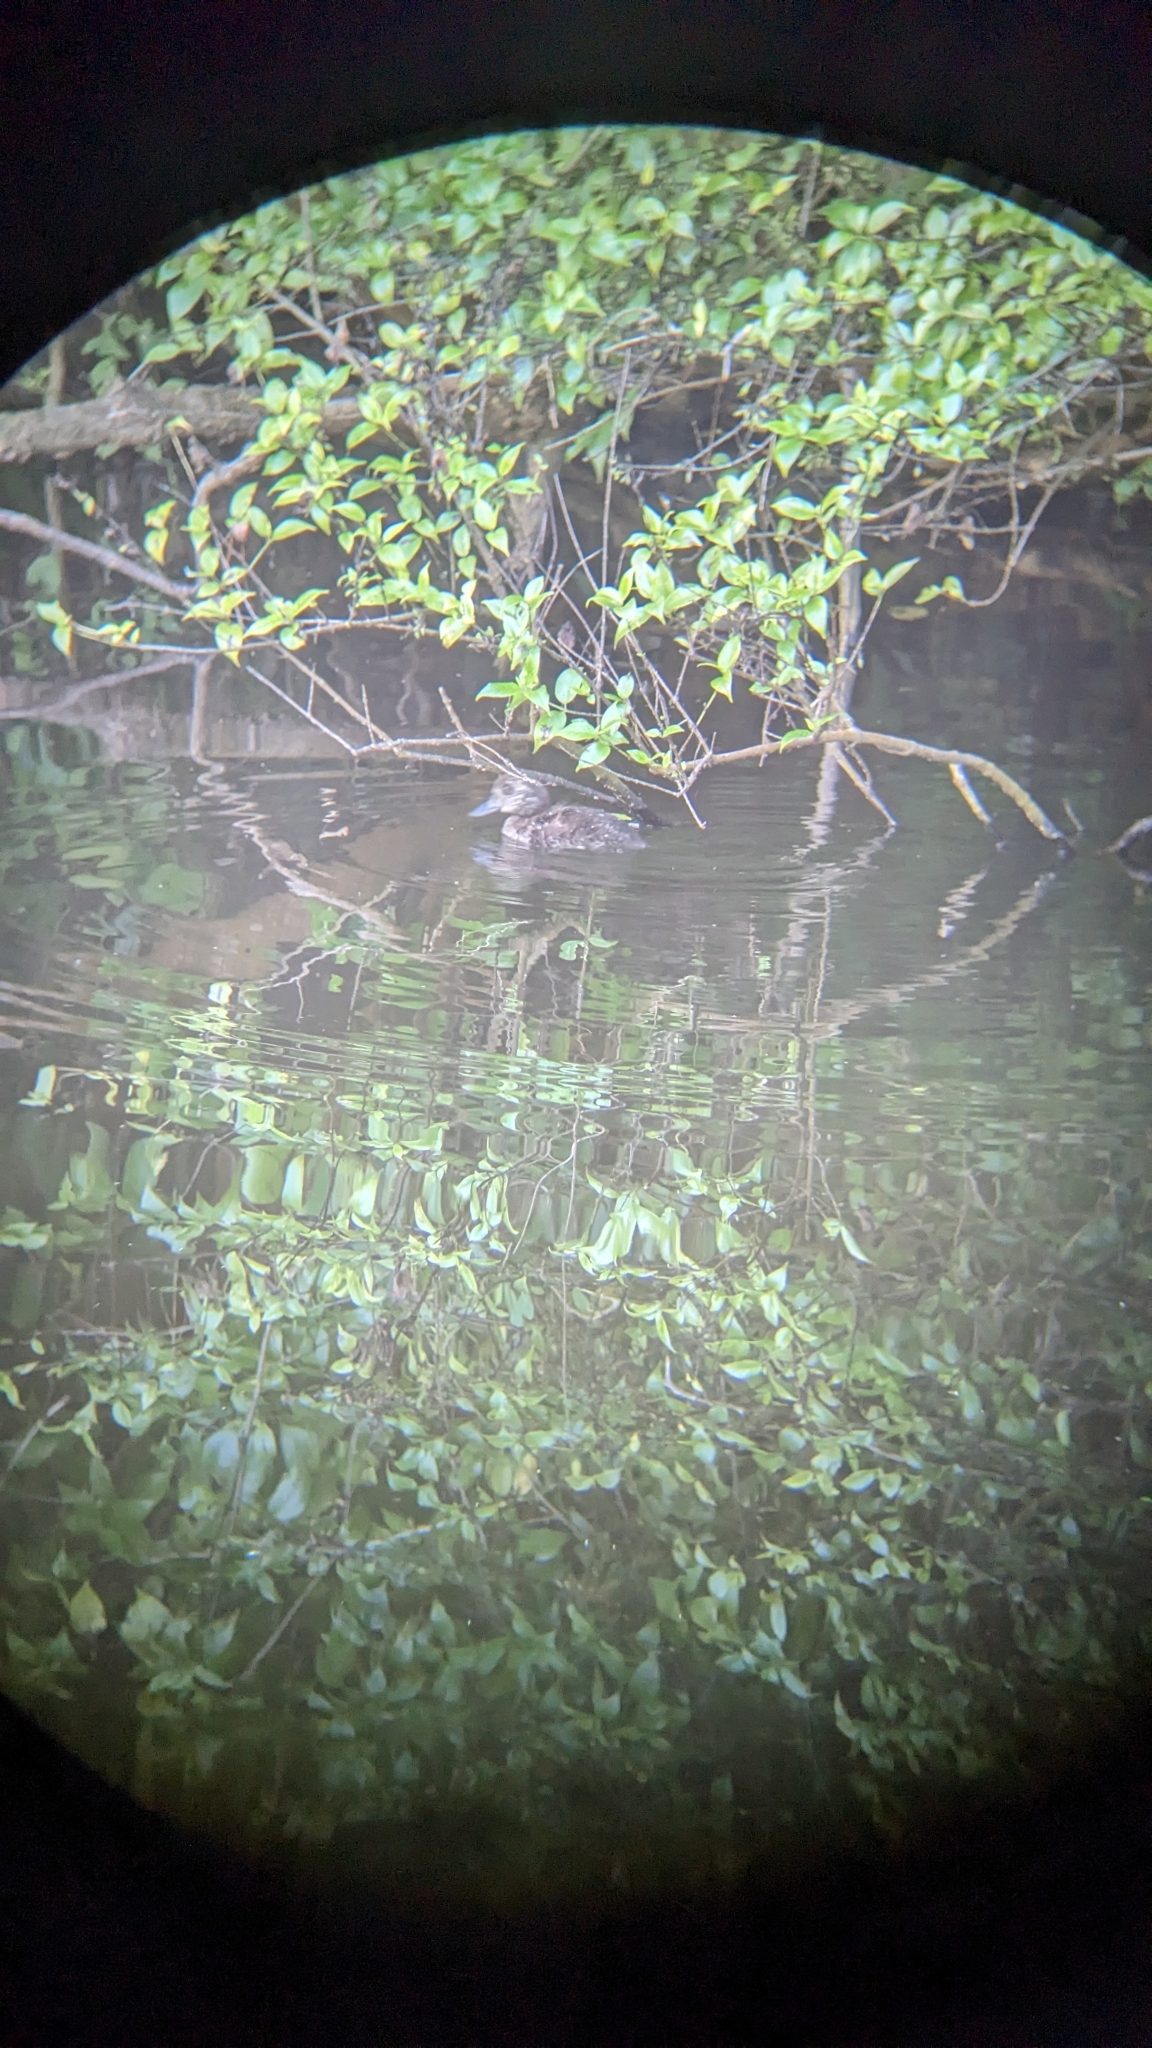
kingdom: Animalia
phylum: Chordata
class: Aves
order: Anseriformes
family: Anatidae
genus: Aythya
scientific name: Aythya novaeseelandiae
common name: New zealand scaup
